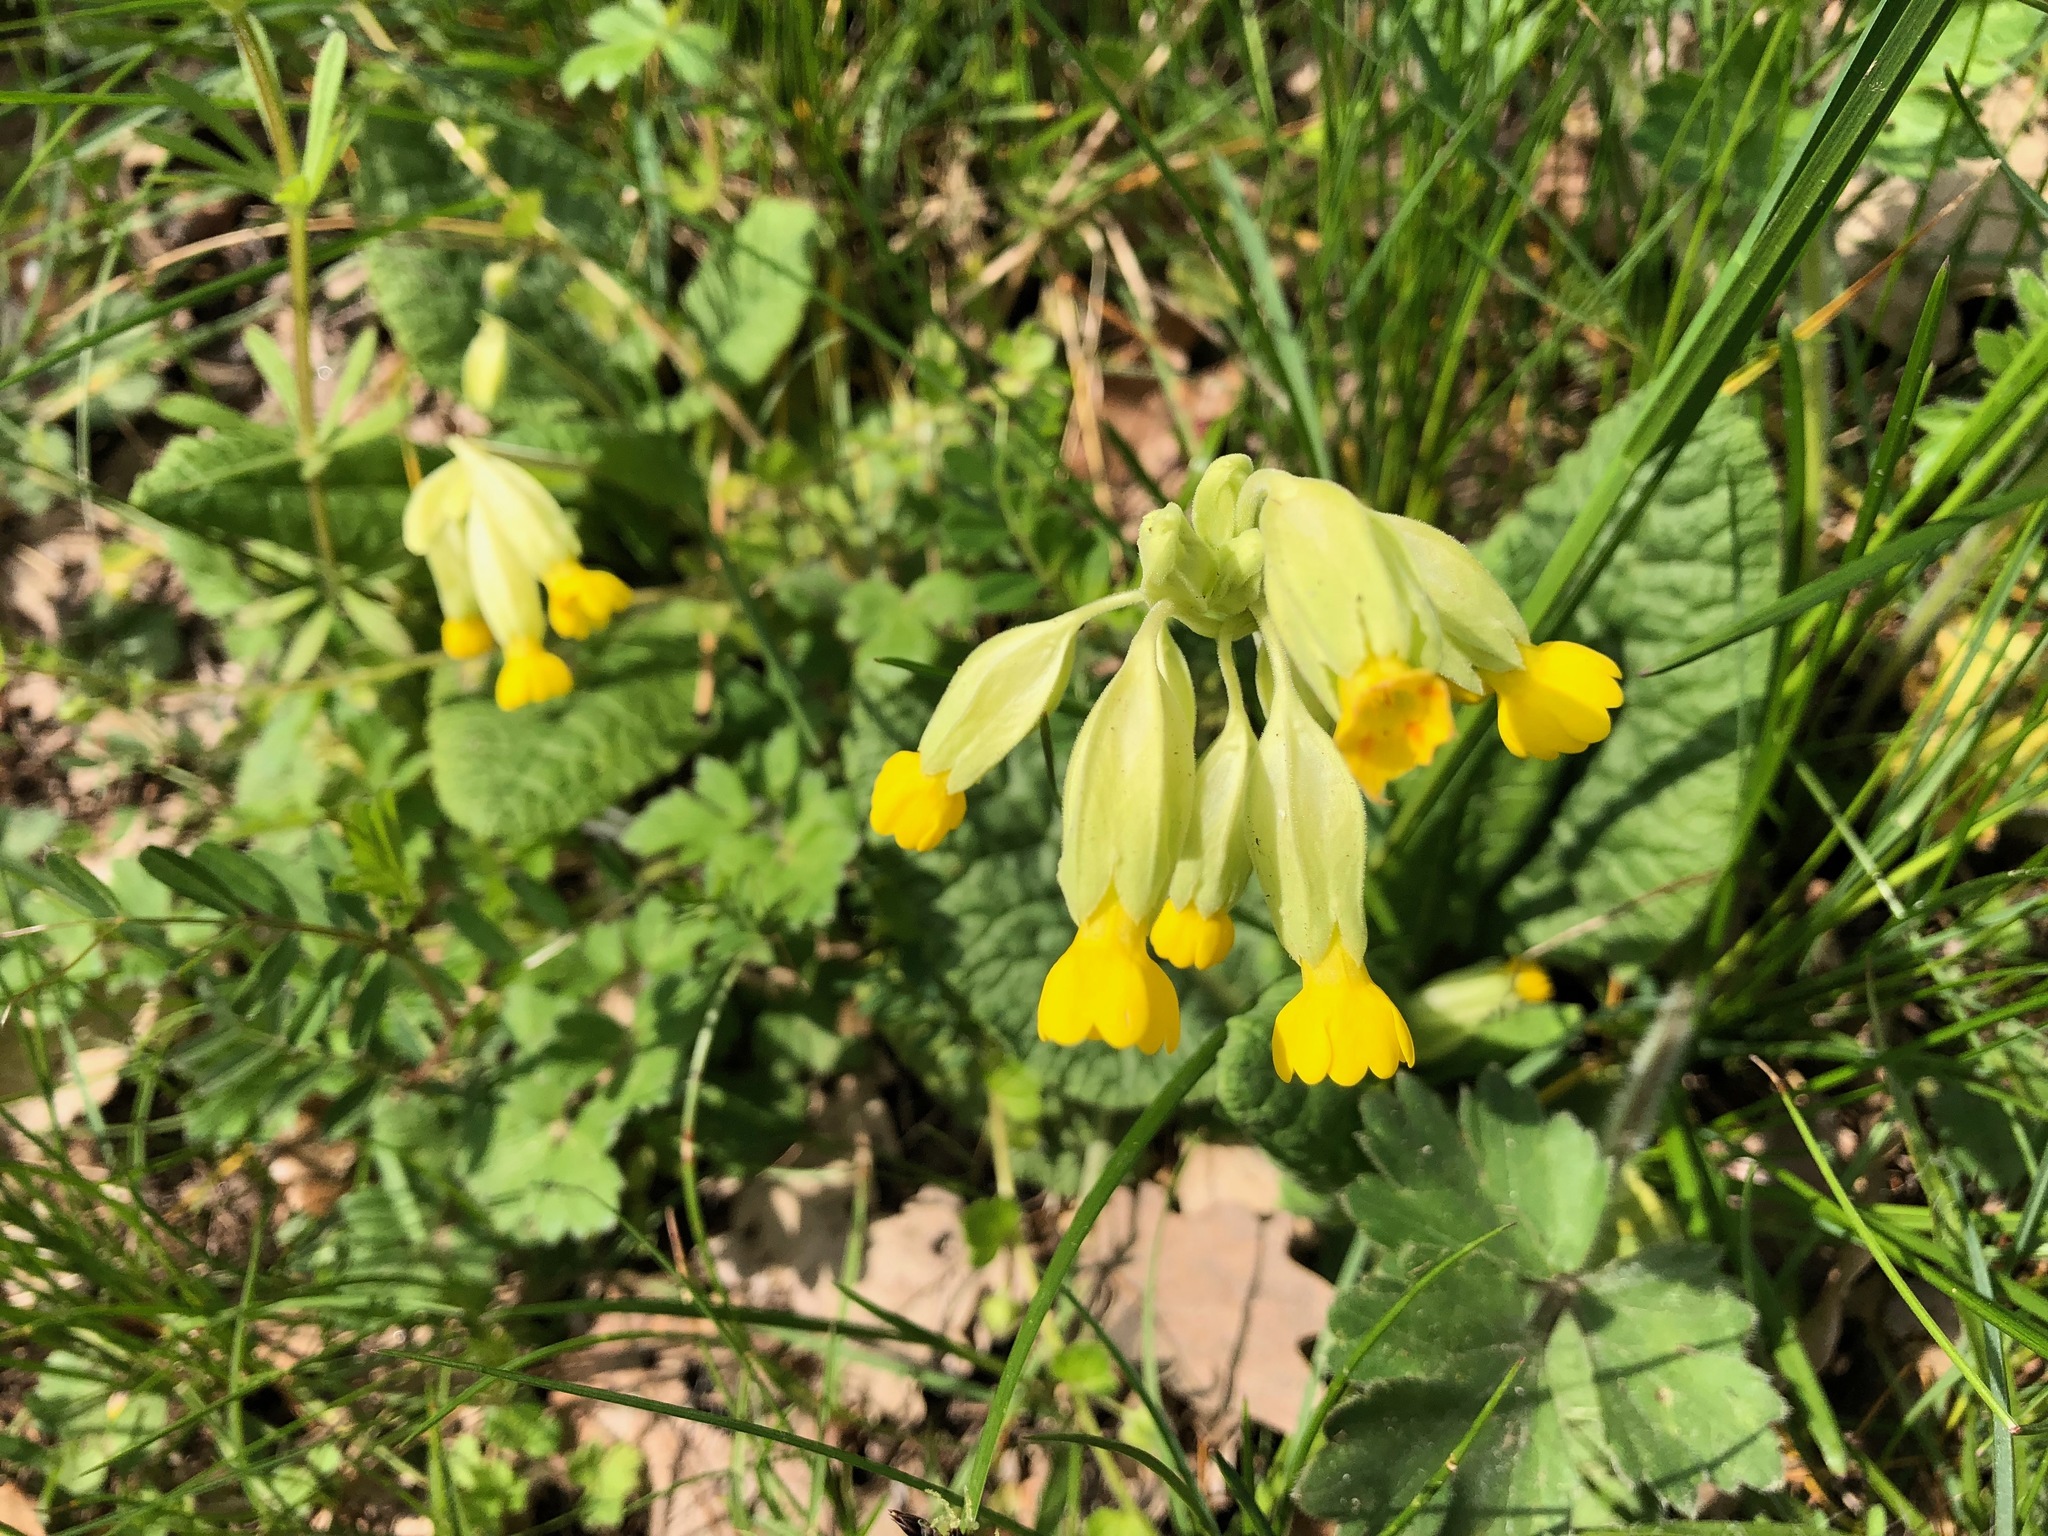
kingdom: Plantae
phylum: Tracheophyta
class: Magnoliopsida
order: Ericales
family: Primulaceae
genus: Primula
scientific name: Primula veris
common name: Cowslip
